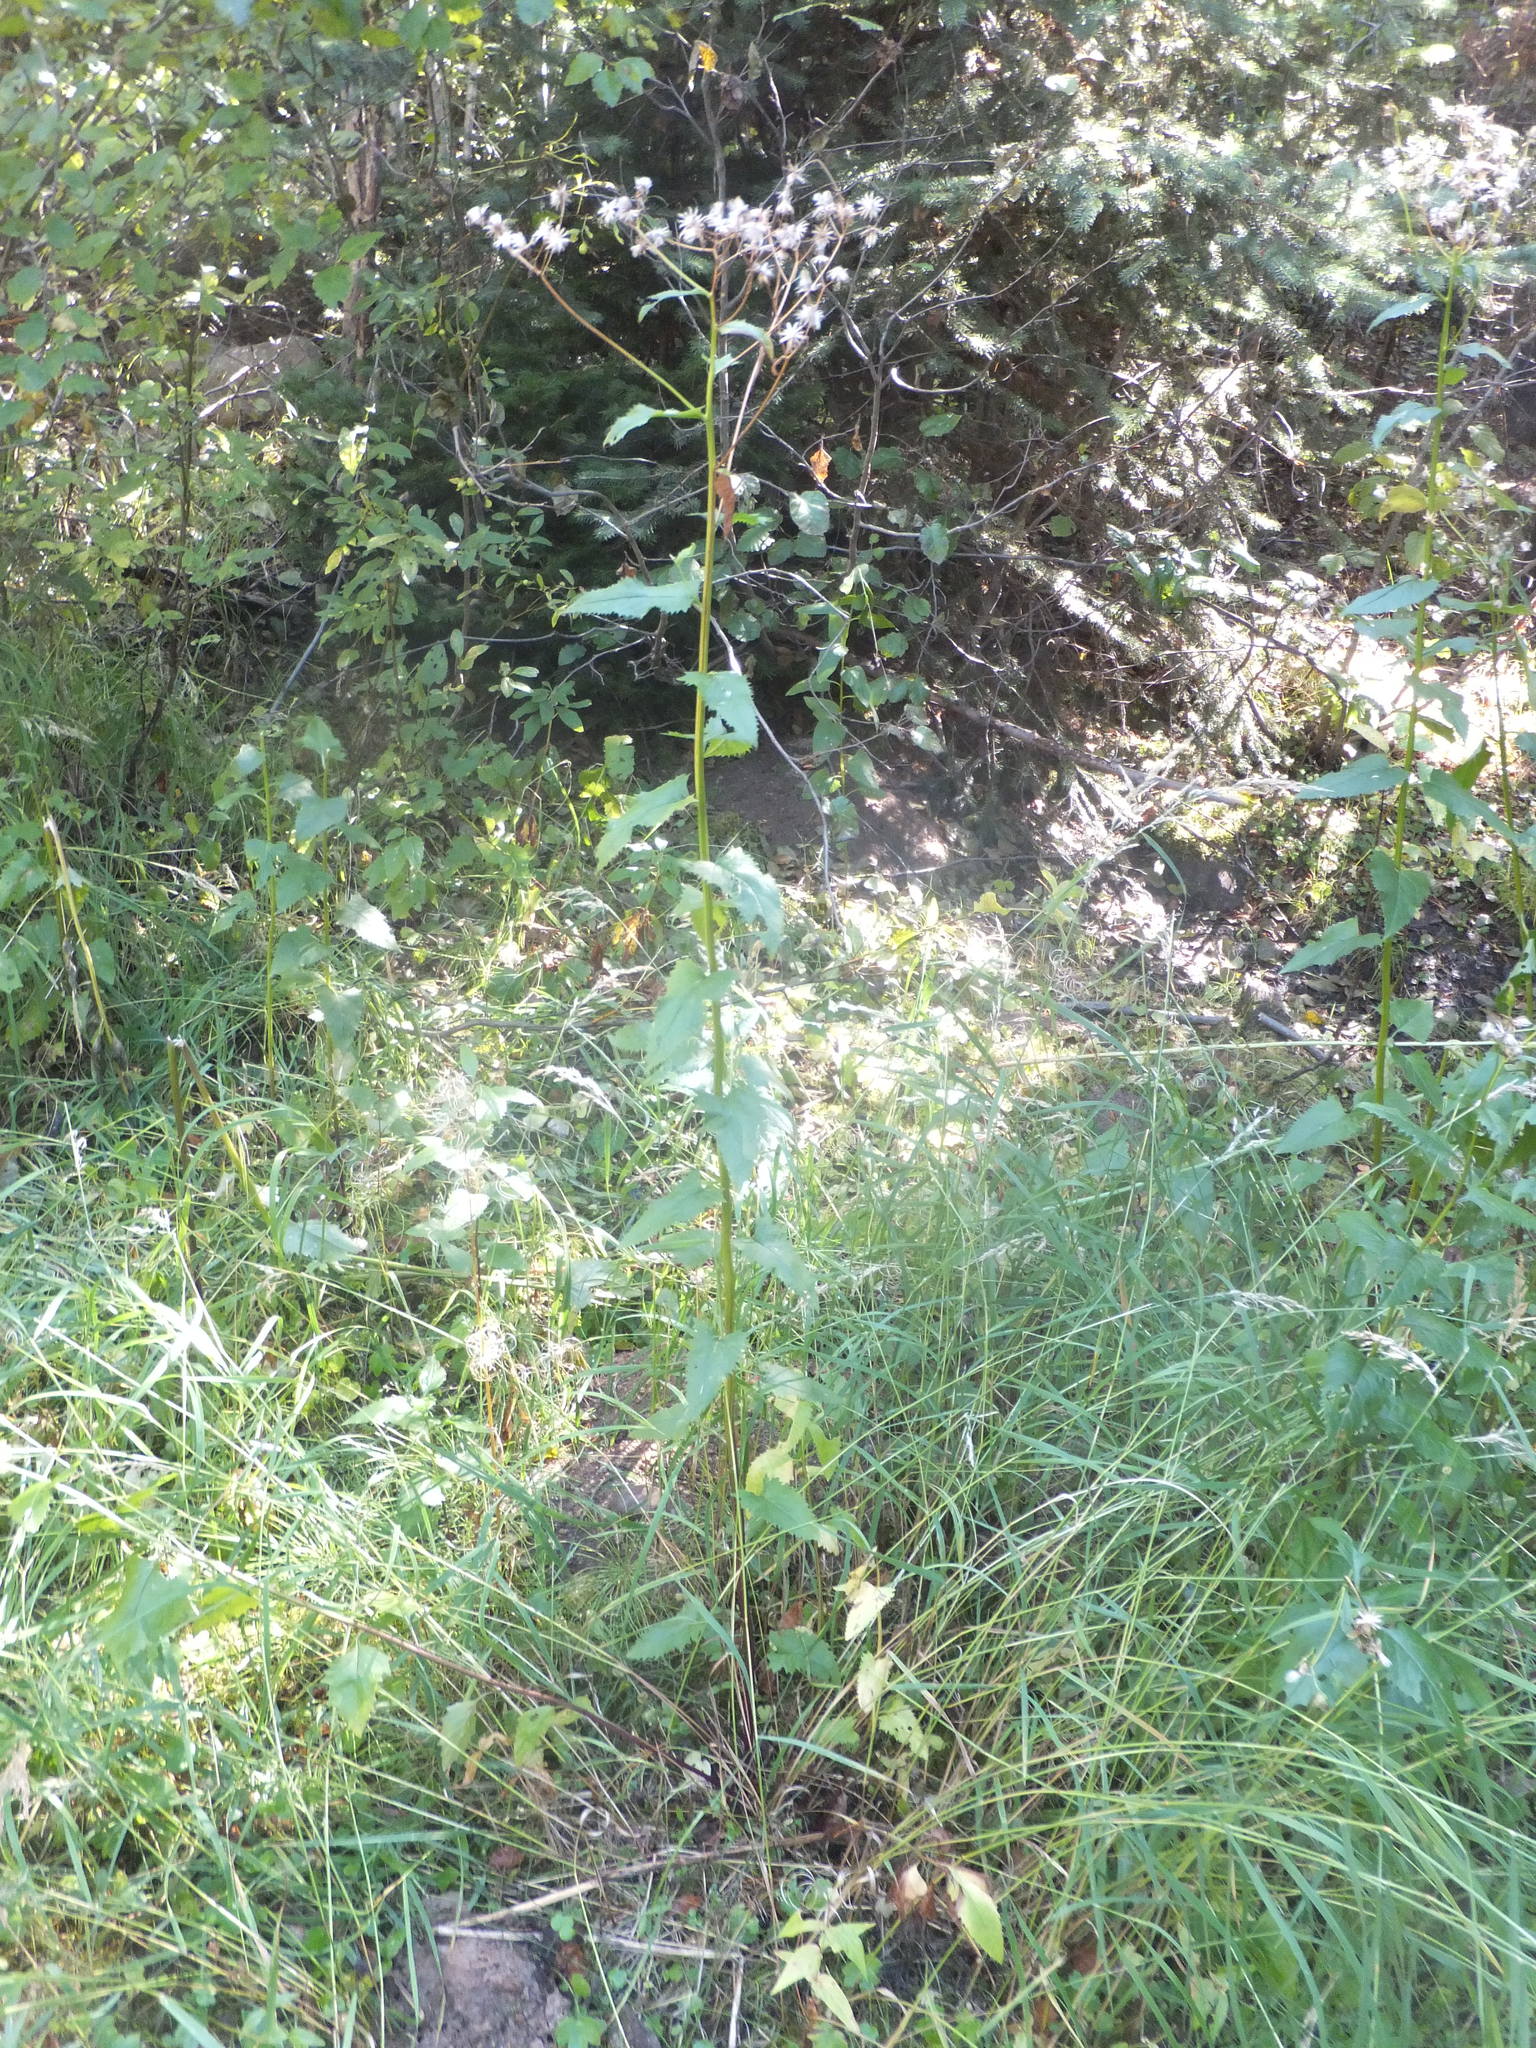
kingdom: Plantae
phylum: Tracheophyta
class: Magnoliopsida
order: Asterales
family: Asteraceae
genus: Senecio
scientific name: Senecio triangularis
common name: Arrowleaf butterweed
